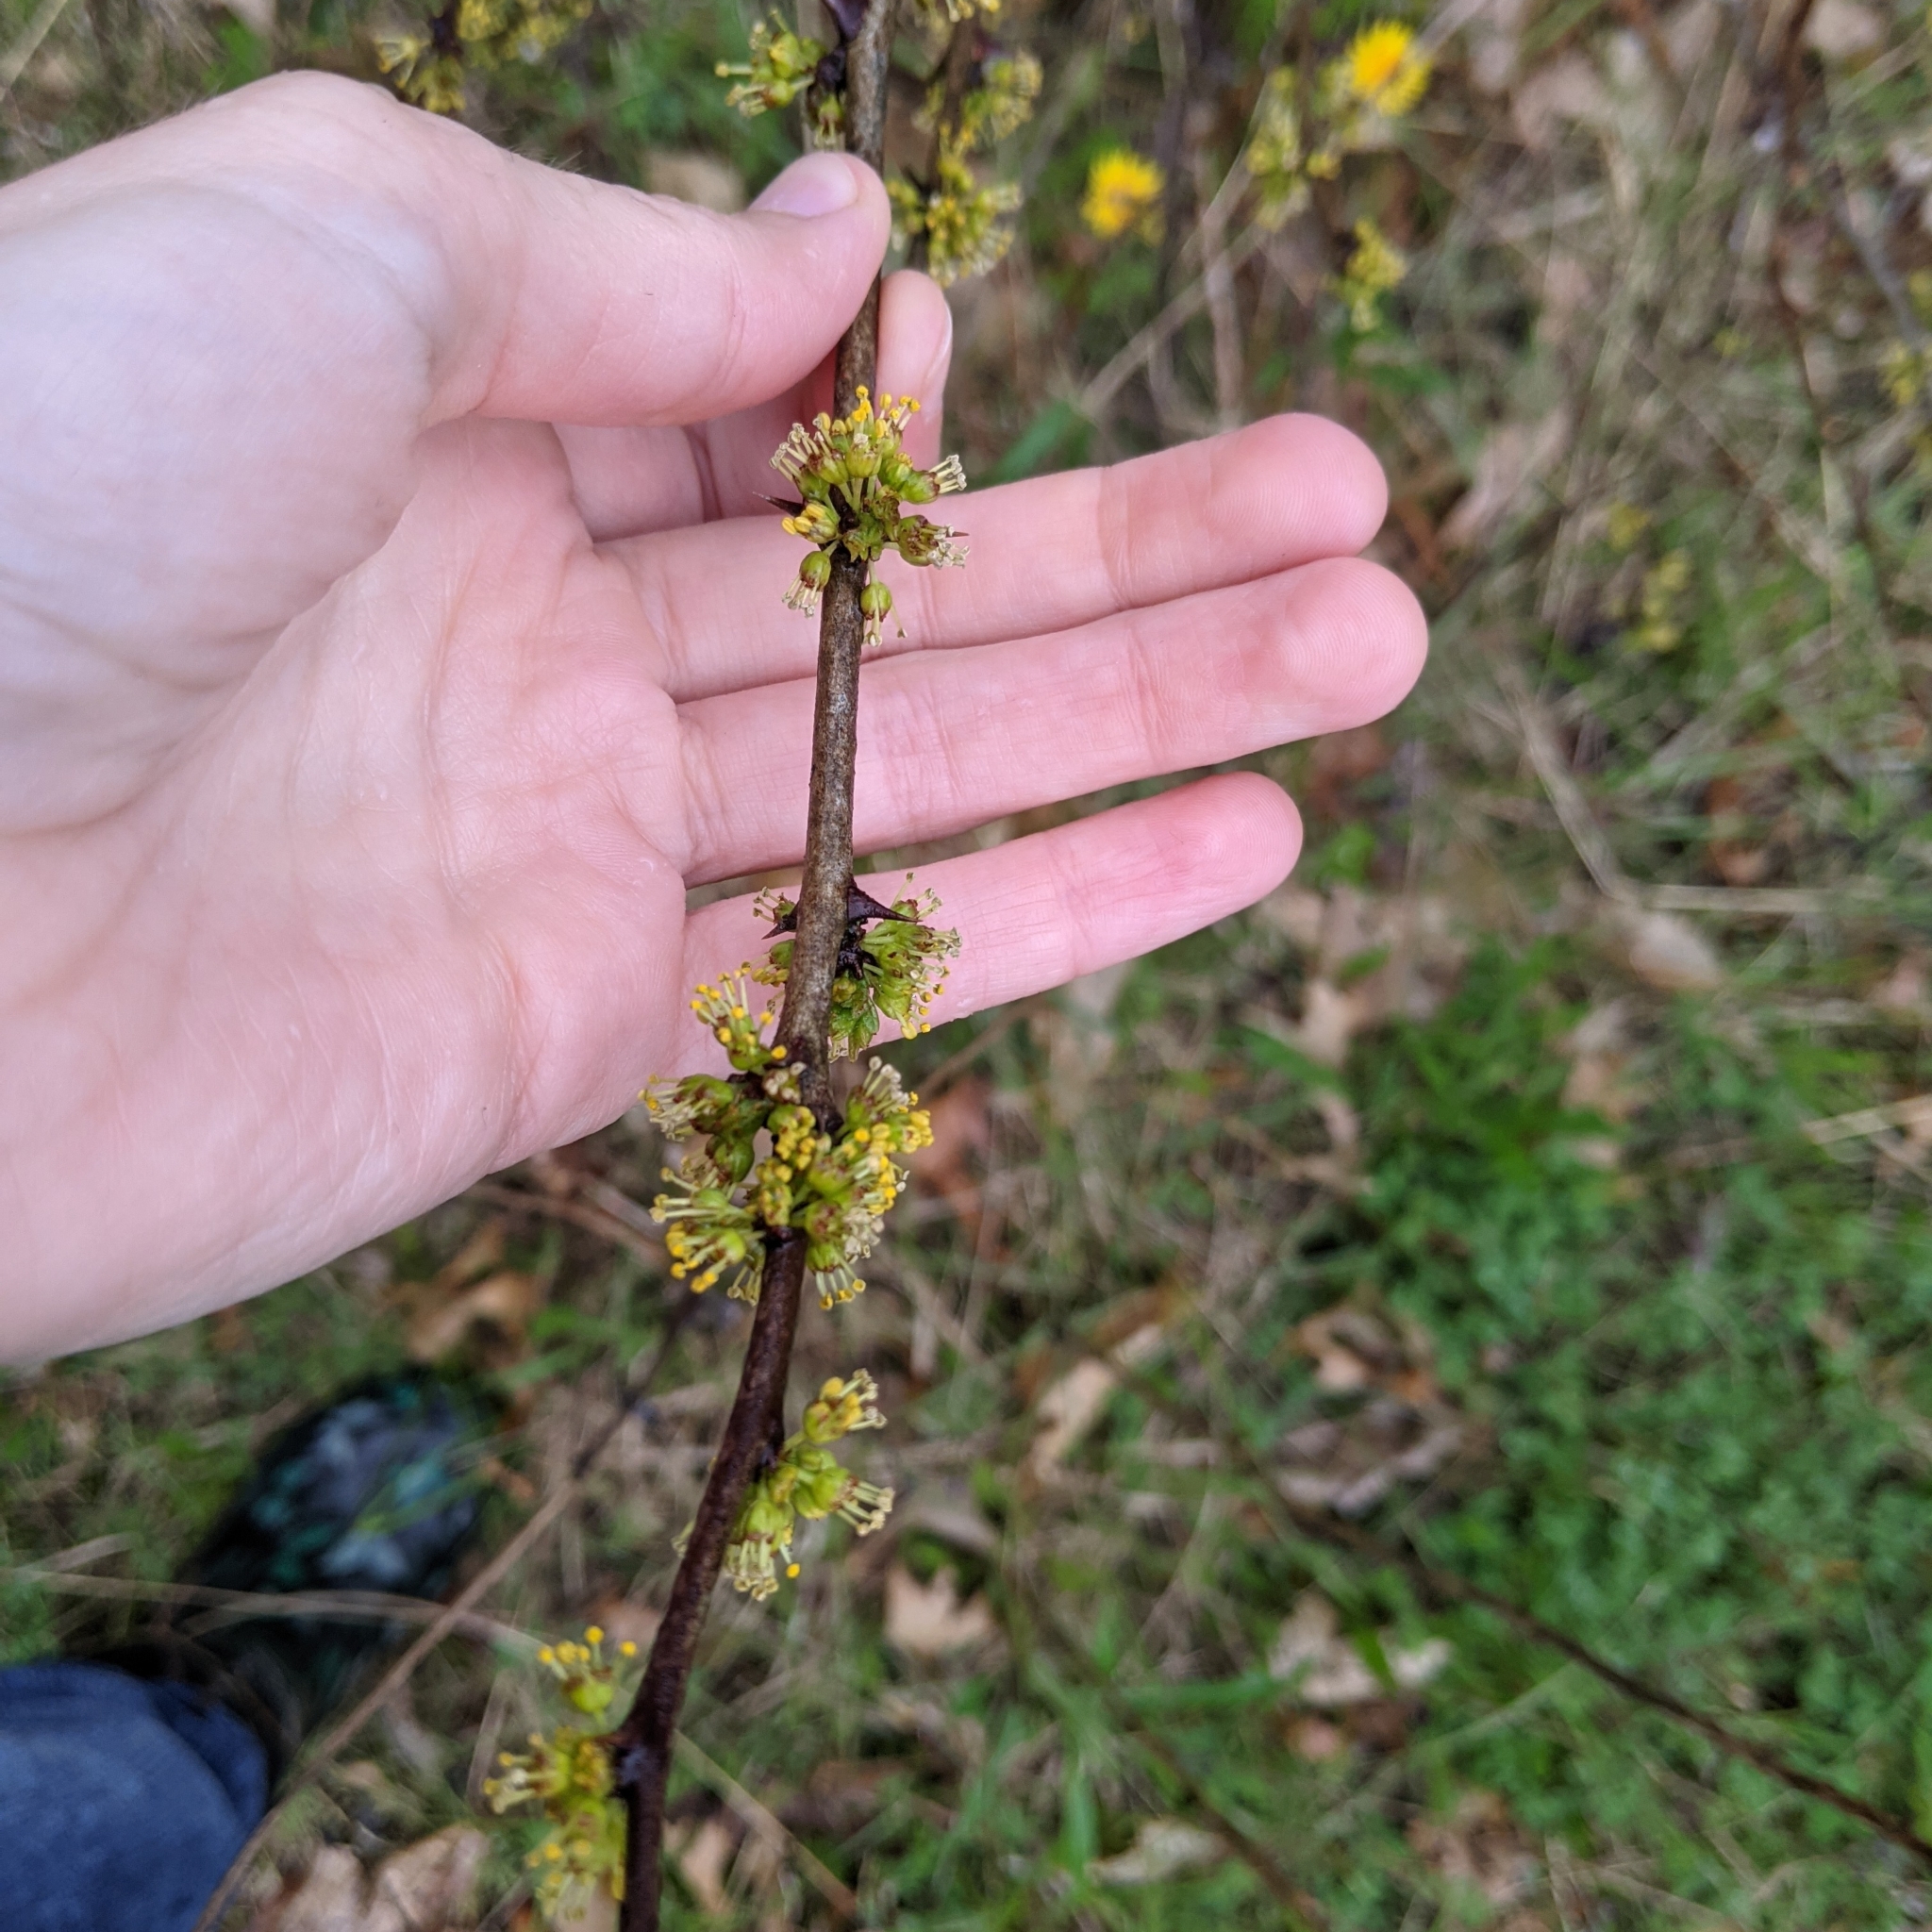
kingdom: Plantae
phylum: Tracheophyta
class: Magnoliopsida
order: Sapindales
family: Rutaceae
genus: Zanthoxylum
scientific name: Zanthoxylum americanum
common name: Northern prickly-ash
